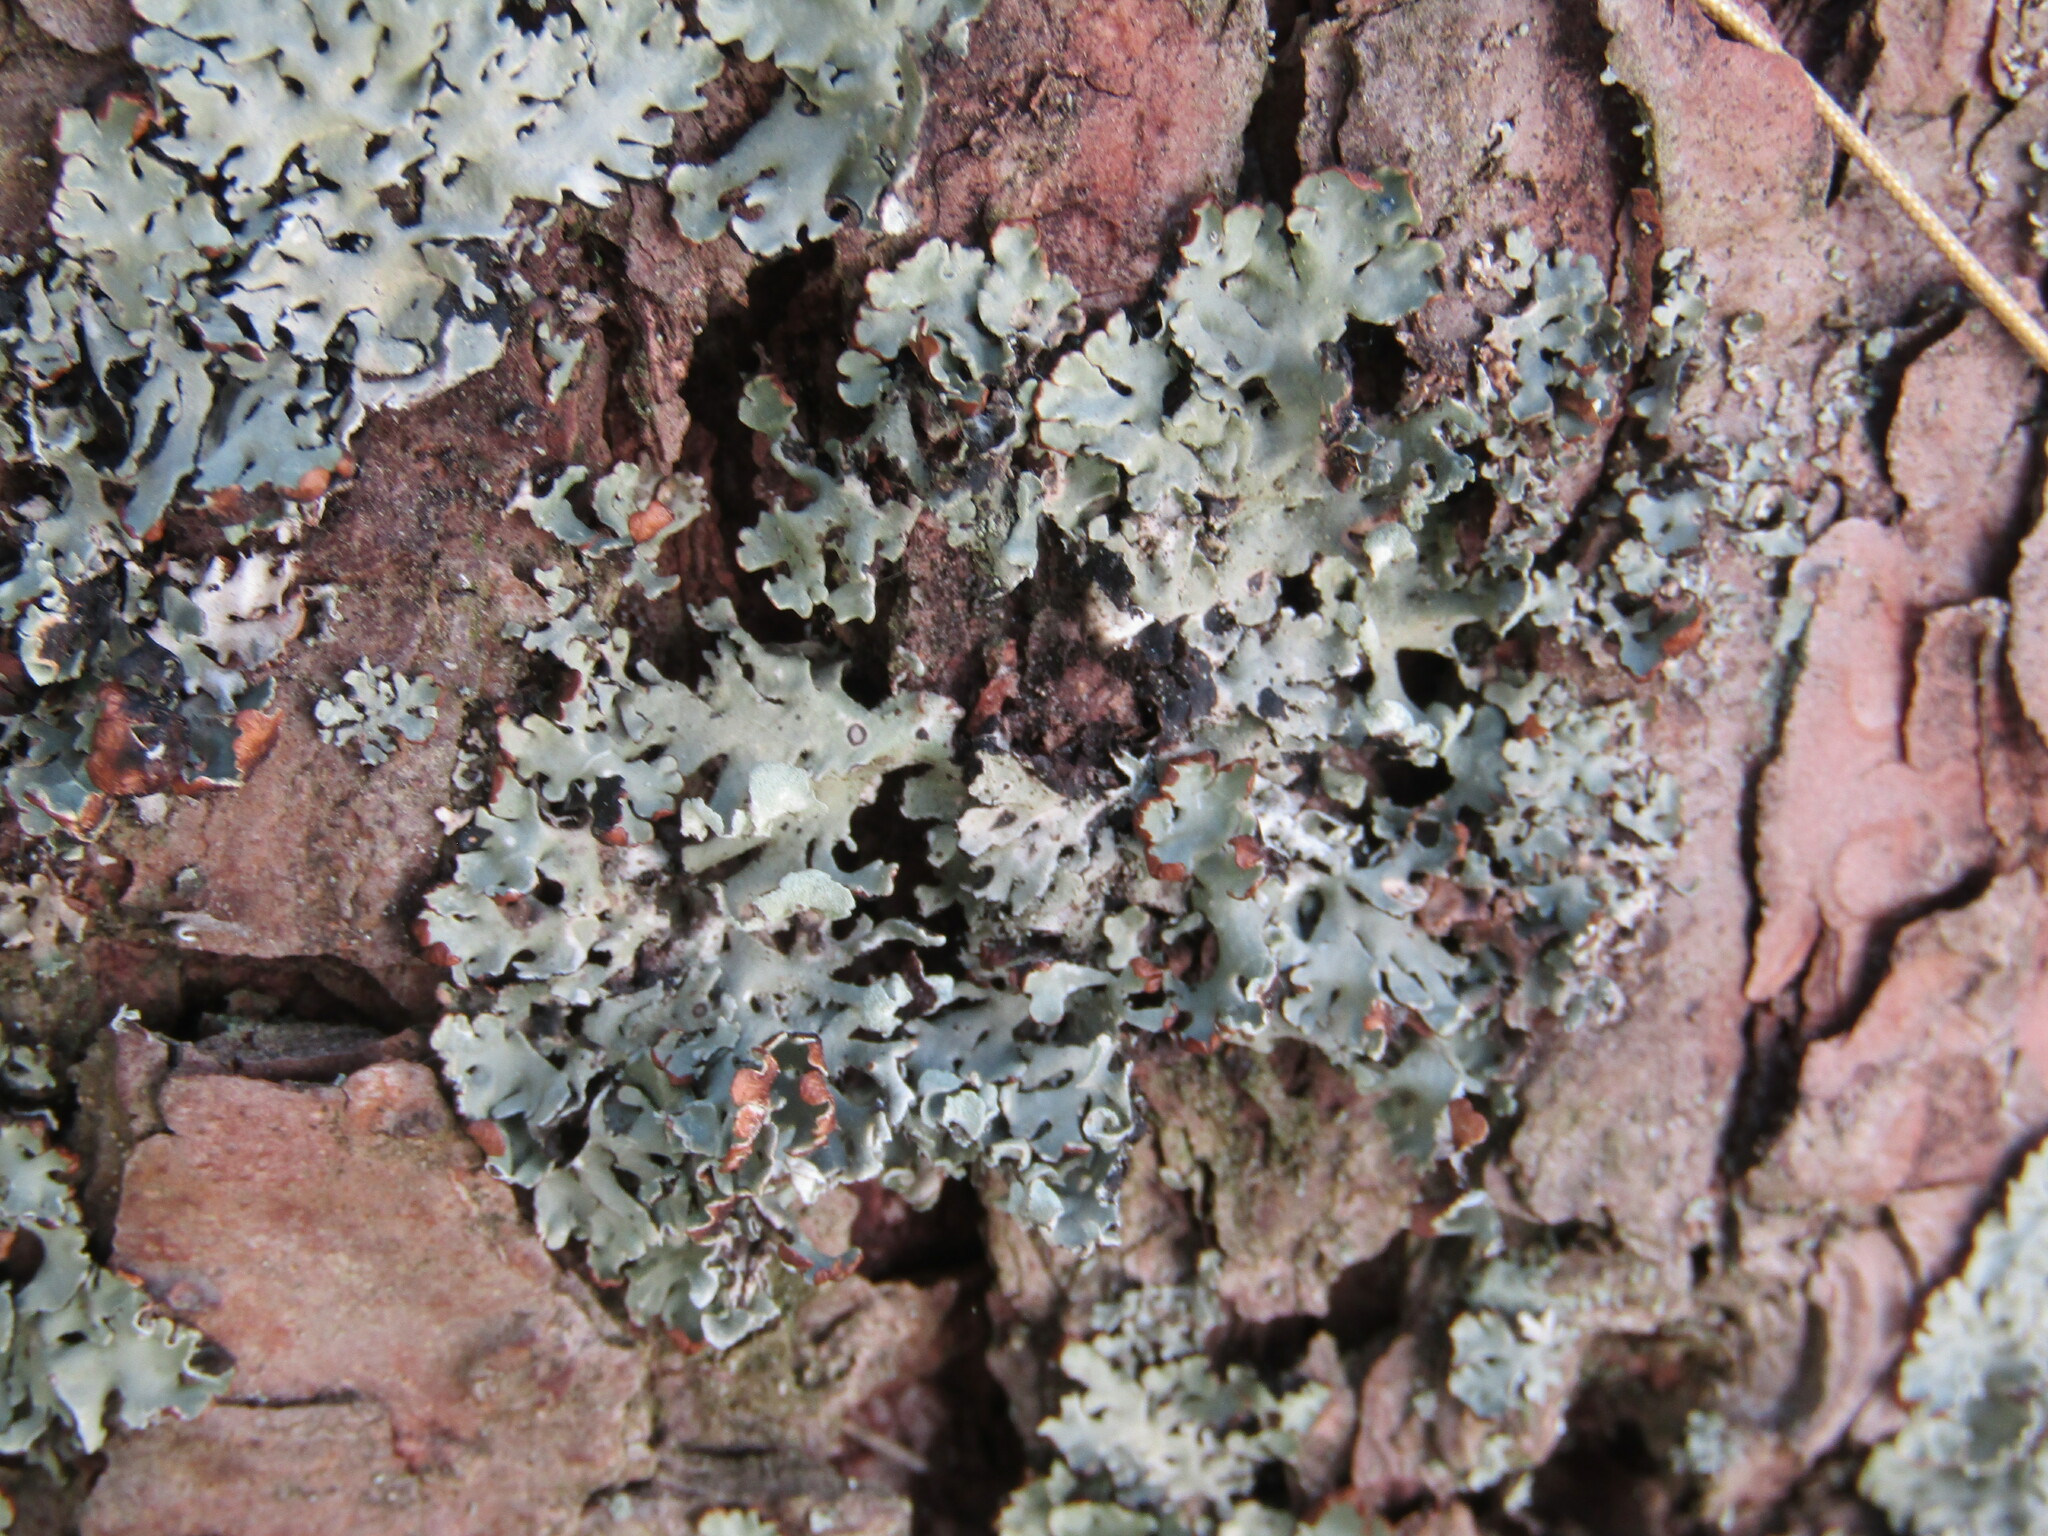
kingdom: Fungi
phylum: Ascomycota
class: Lecanoromycetes
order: Lecanorales
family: Parmeliaceae
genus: Hypogymnia
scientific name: Hypogymnia physodes
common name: Dark crottle
